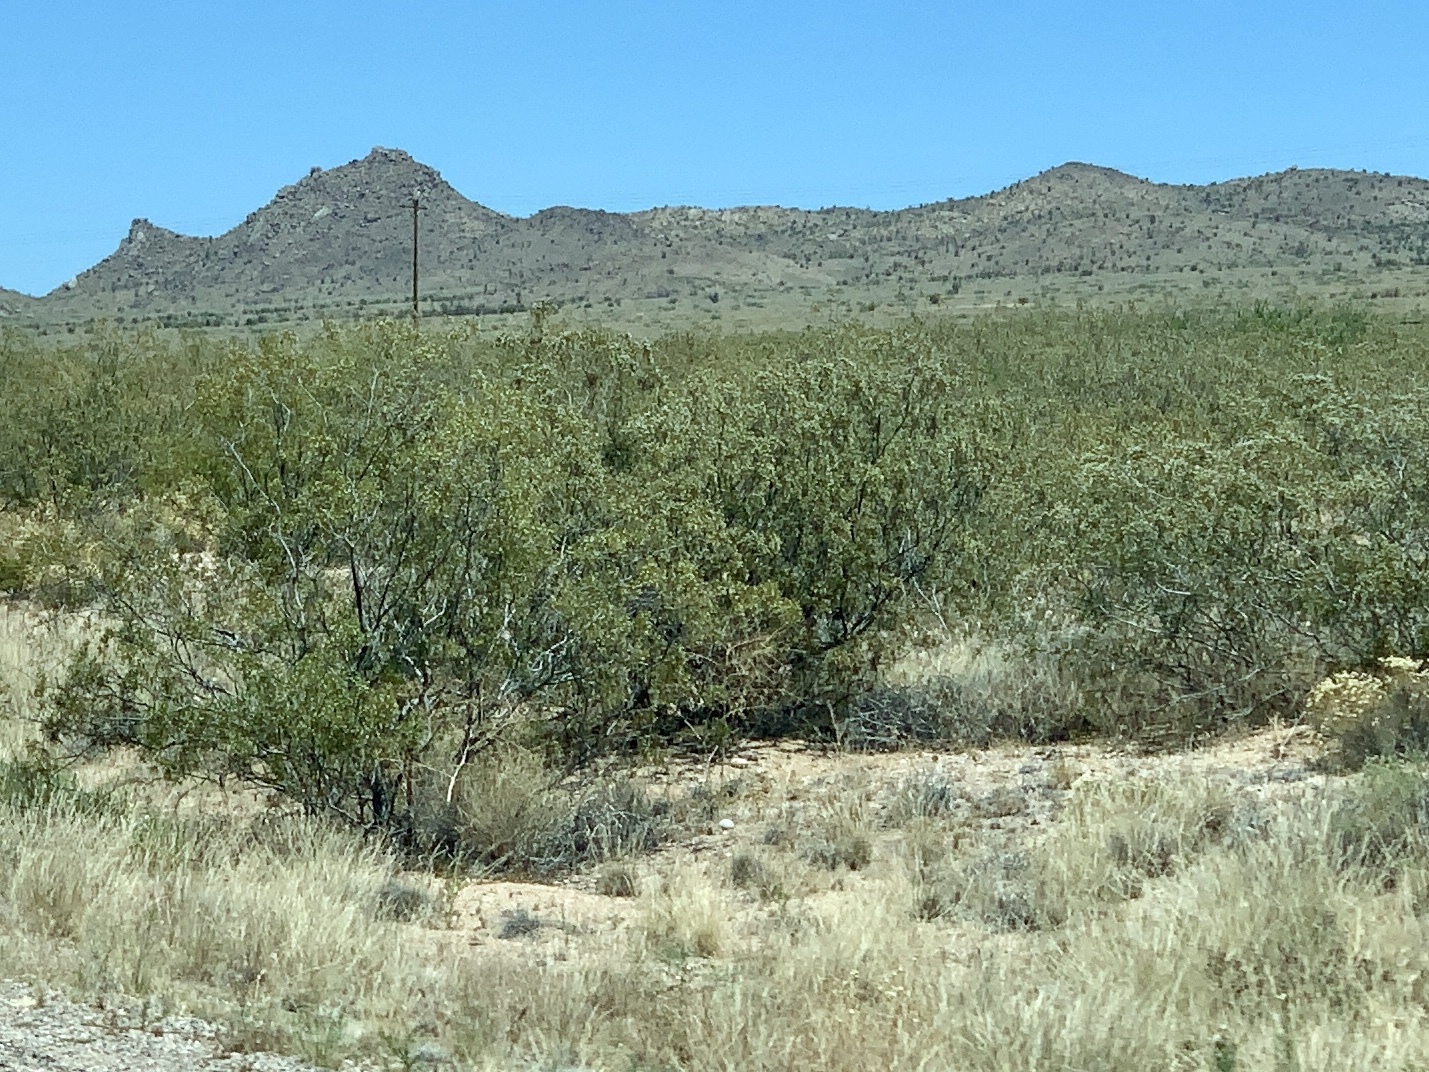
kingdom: Plantae
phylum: Tracheophyta
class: Magnoliopsida
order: Zygophyllales
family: Zygophyllaceae
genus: Larrea
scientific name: Larrea tridentata
